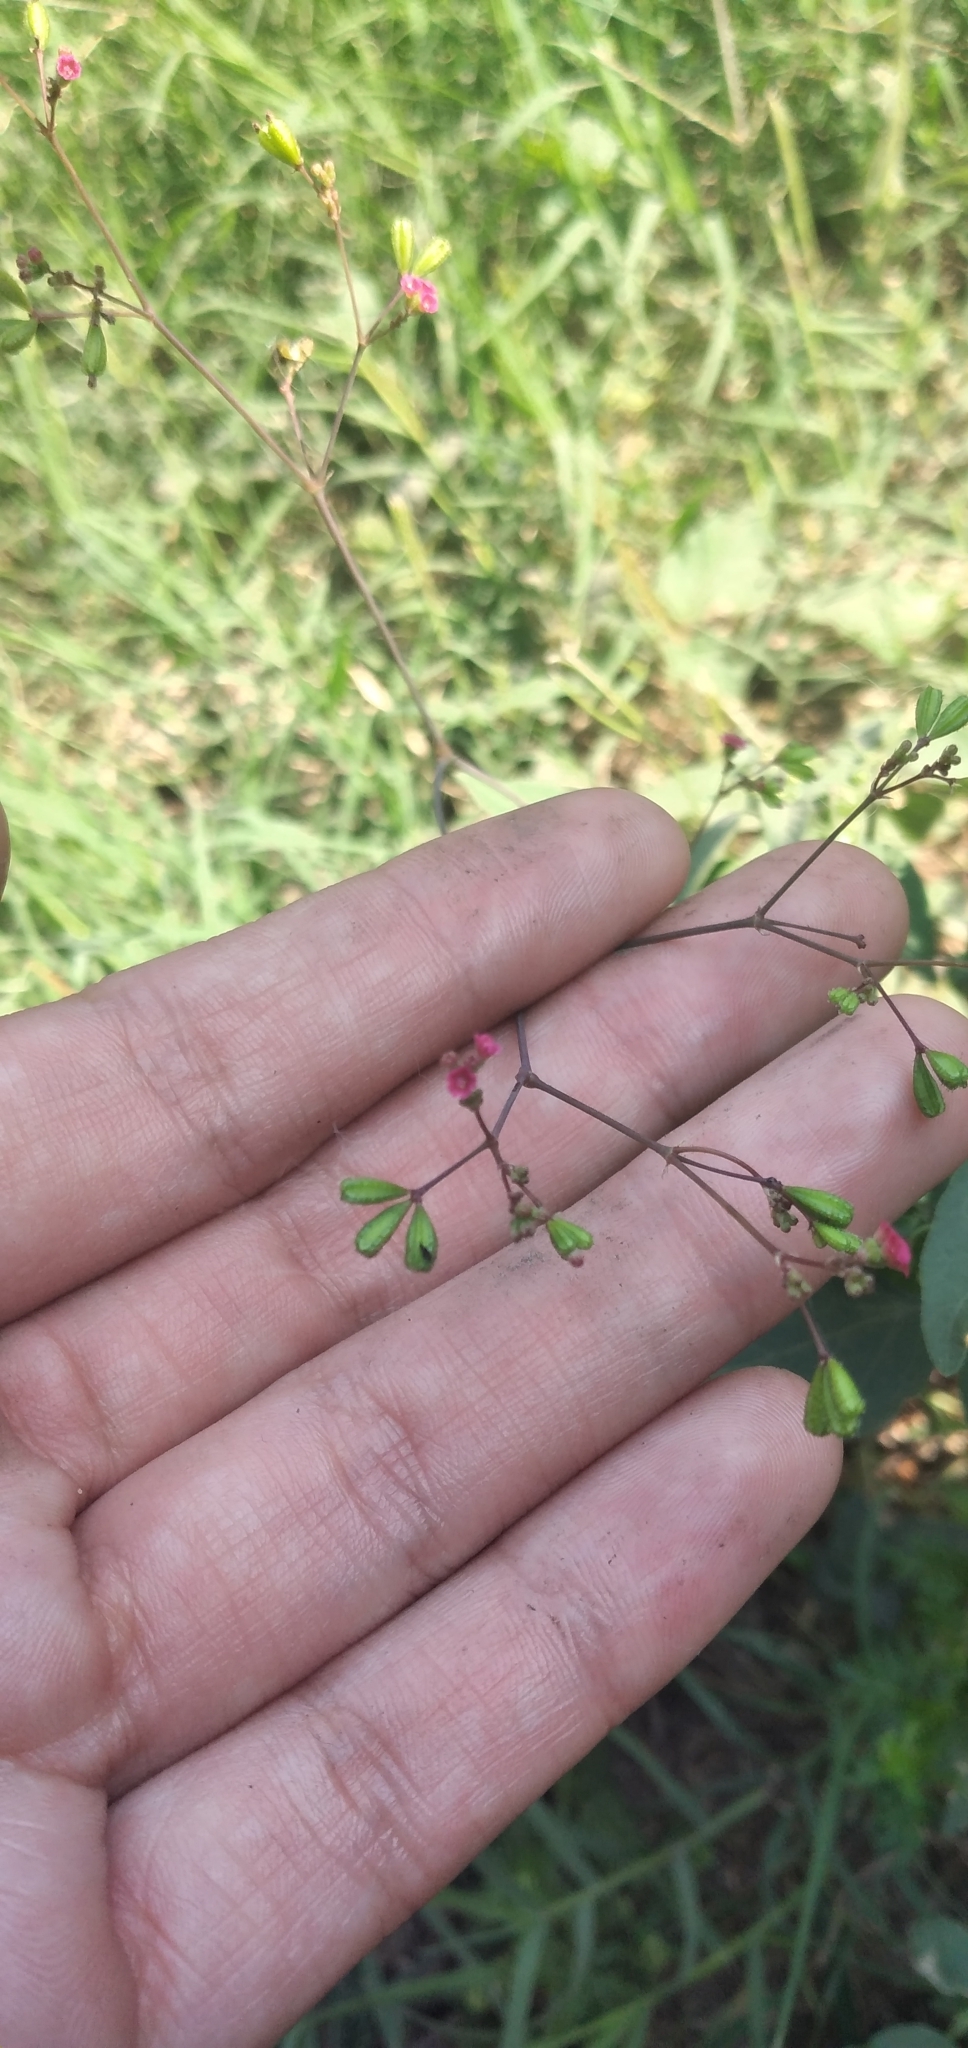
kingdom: Plantae
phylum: Tracheophyta
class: Magnoliopsida
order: Caryophyllales
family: Nyctaginaceae
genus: Boerhavia
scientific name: Boerhavia diffusa
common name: Red spiderling
